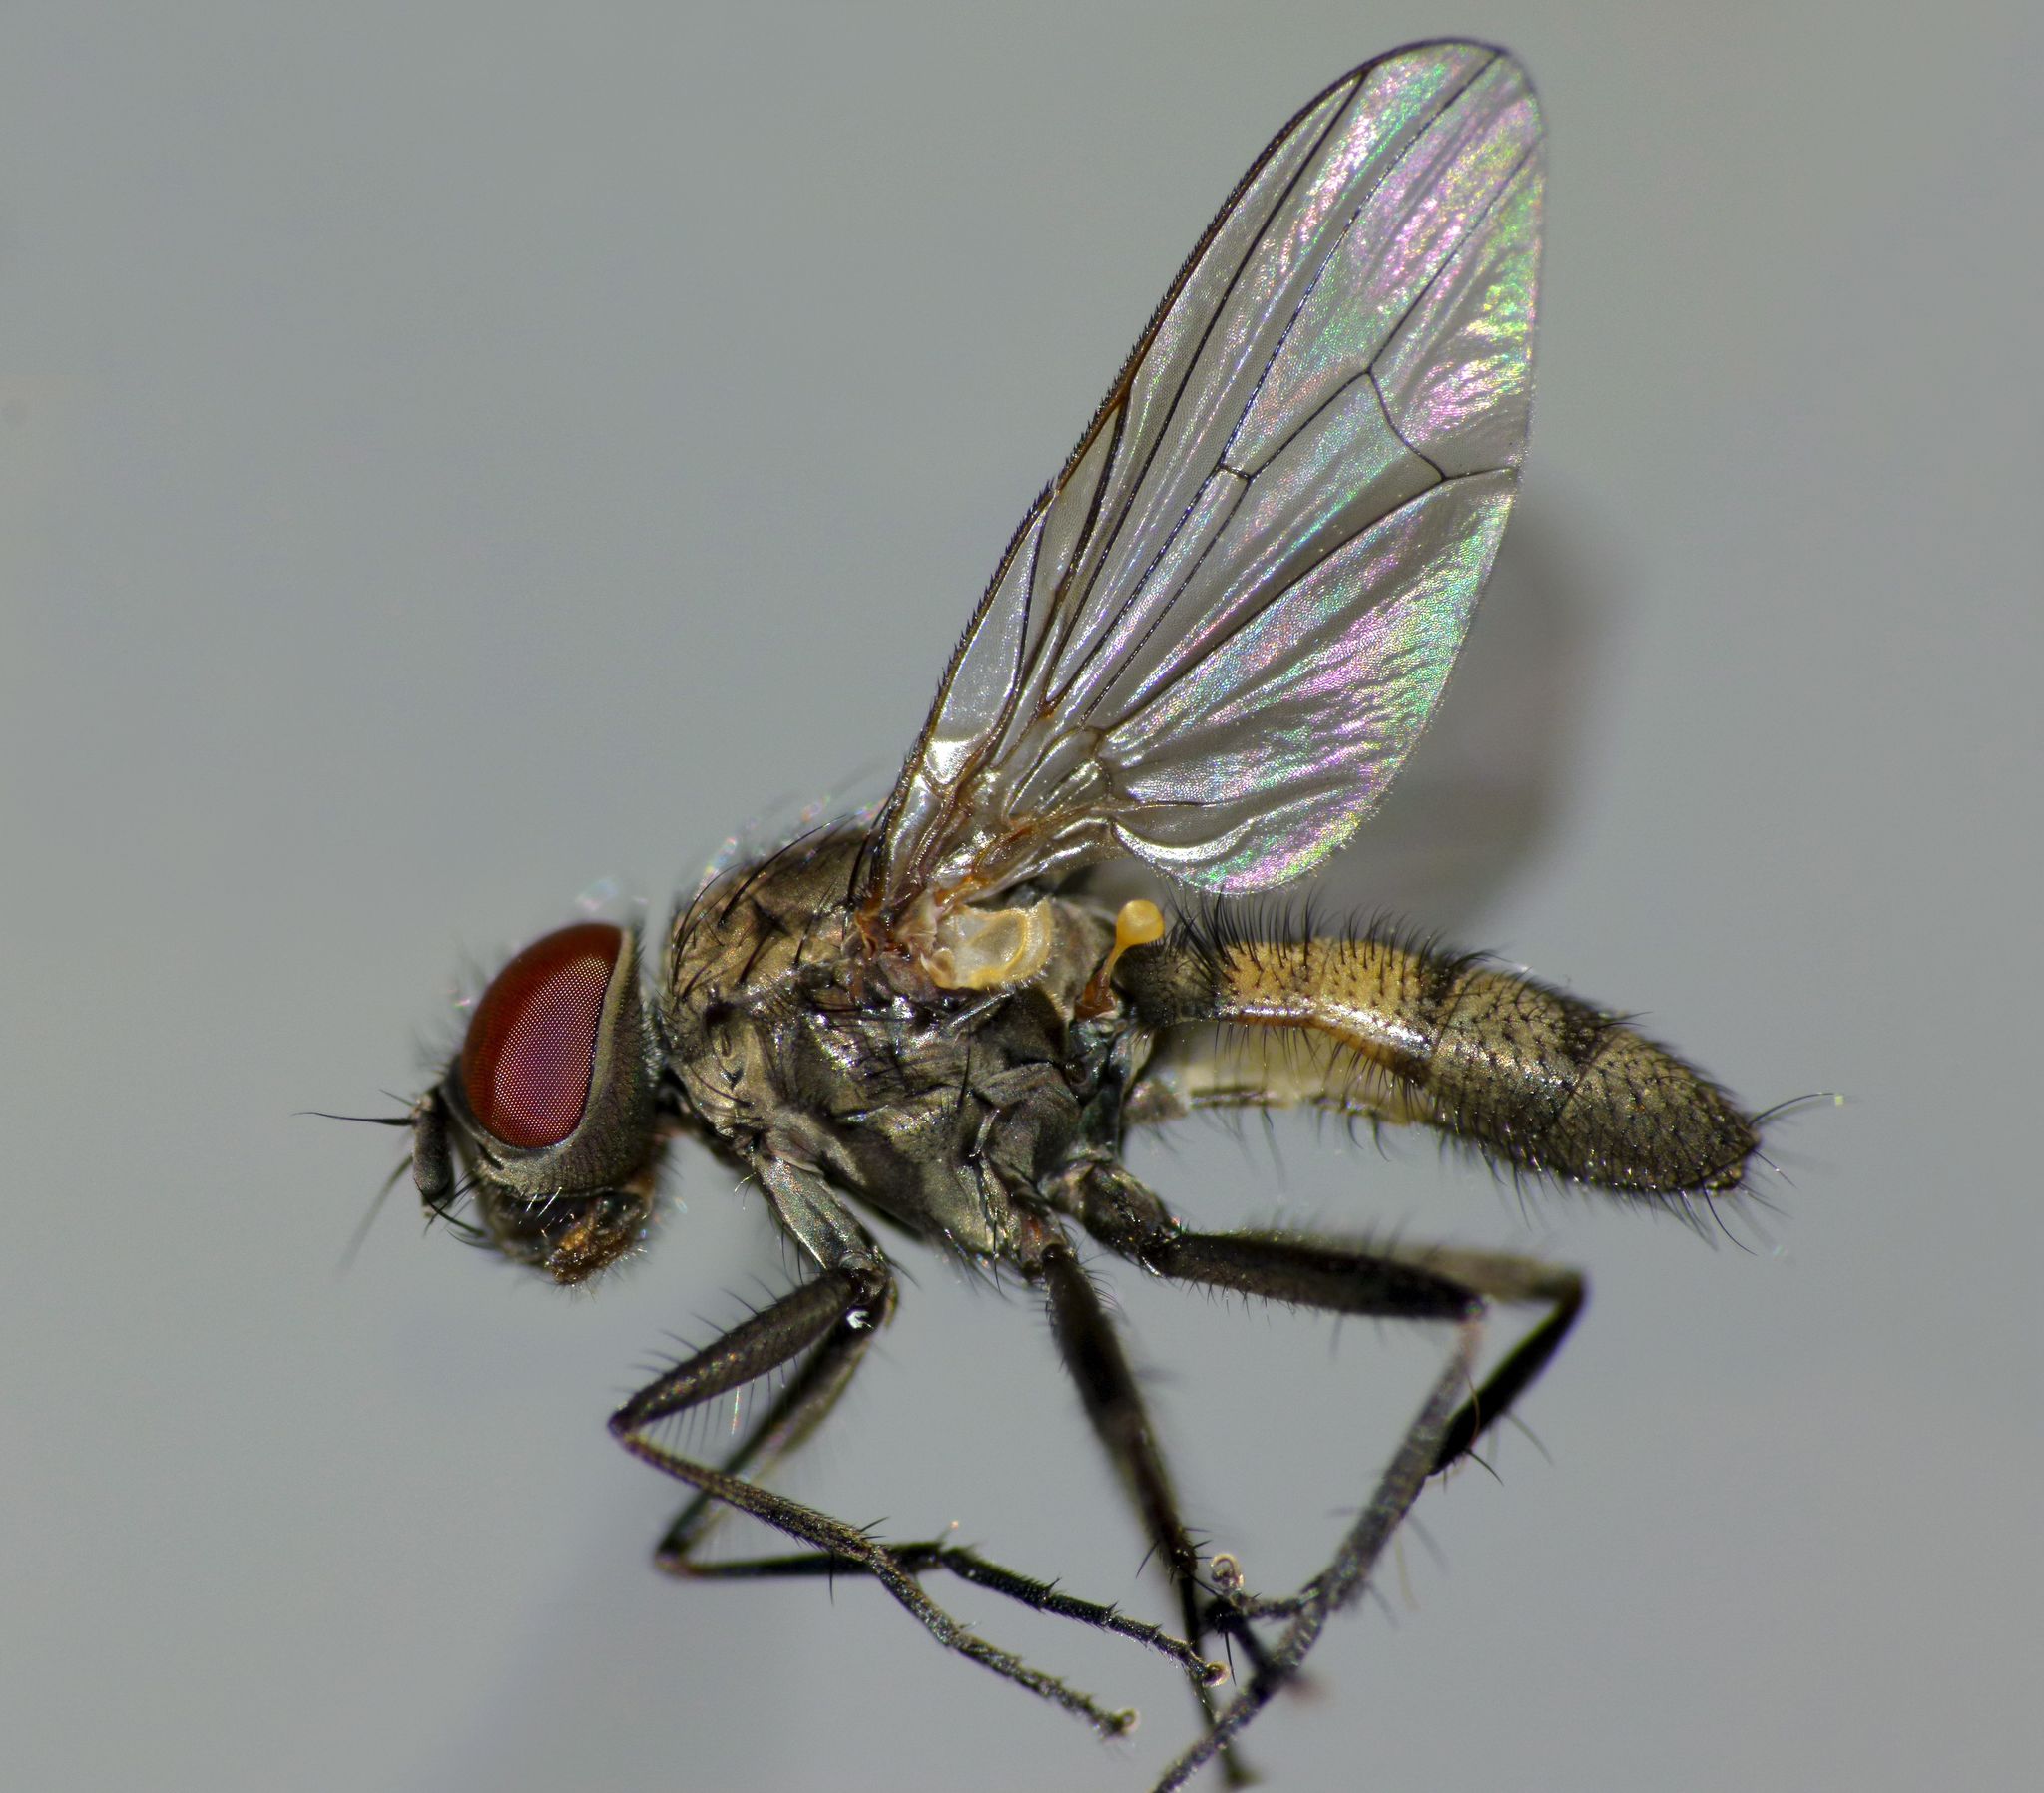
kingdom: Animalia
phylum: Arthropoda
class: Insecta
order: Diptera
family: Fanniidae
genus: Fannia
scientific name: Fannia canicularis
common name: Little house fly
